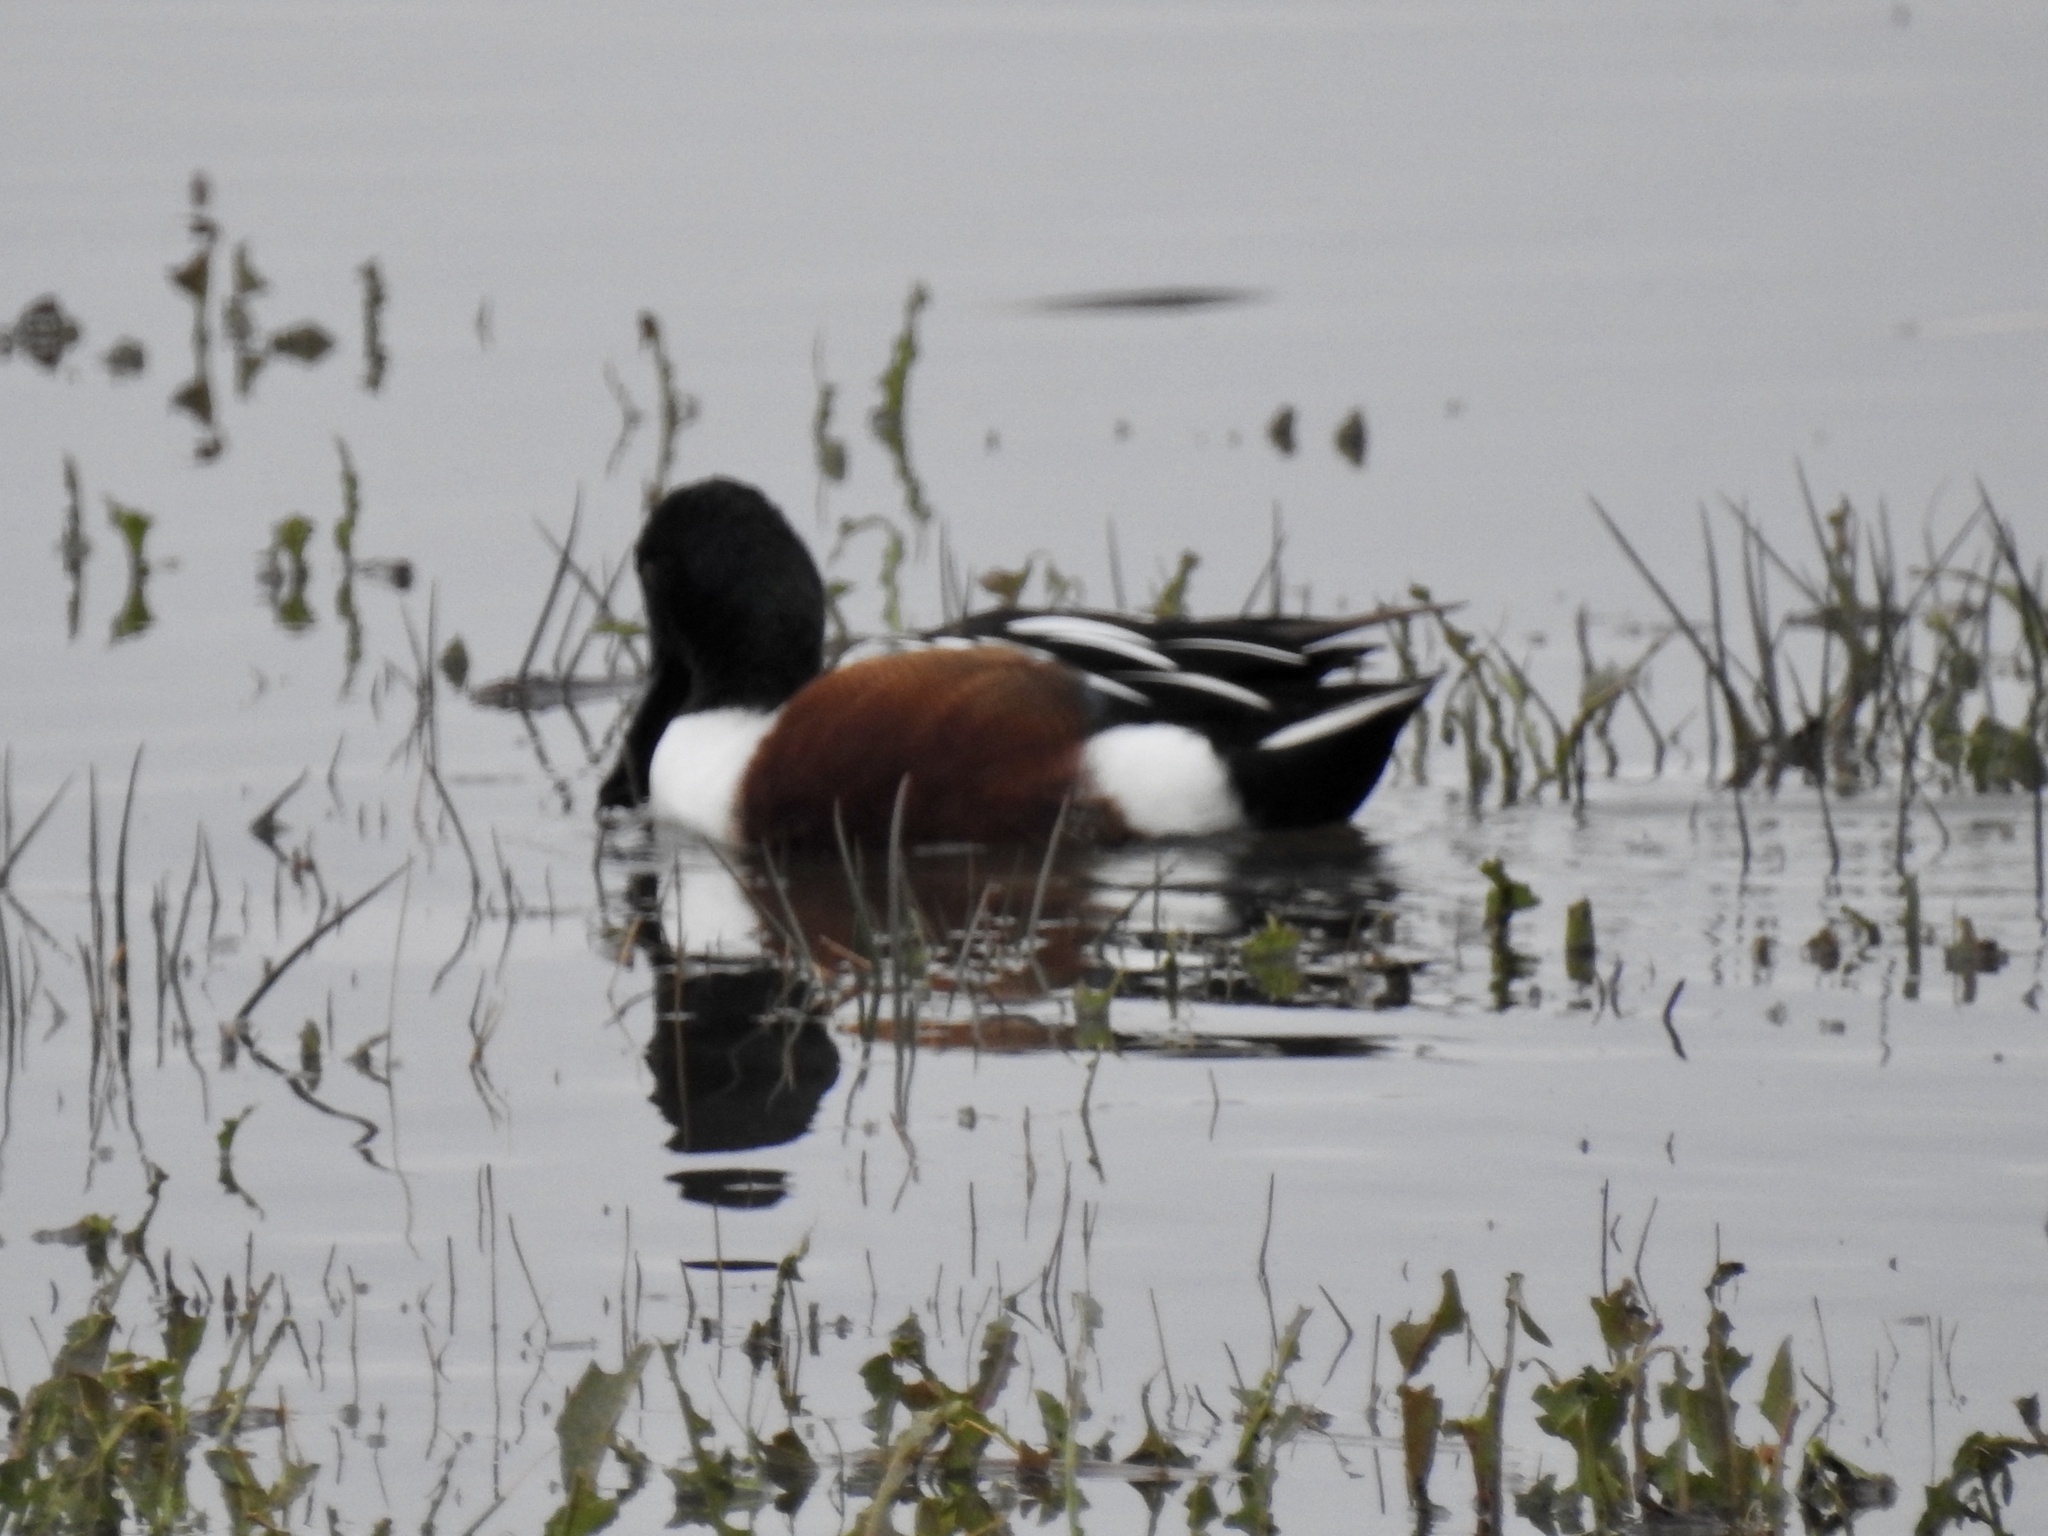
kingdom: Animalia
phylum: Chordata
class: Aves
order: Anseriformes
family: Anatidae
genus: Spatula
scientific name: Spatula clypeata
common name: Northern shoveler
